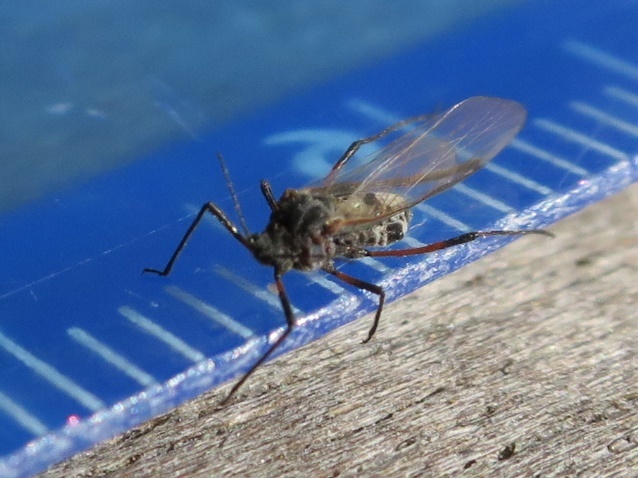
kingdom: Animalia
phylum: Arthropoda
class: Insecta
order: Hemiptera
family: Aphididae
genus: Tuberolachnus
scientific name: Tuberolachnus salignus
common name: Giant willow aphid
